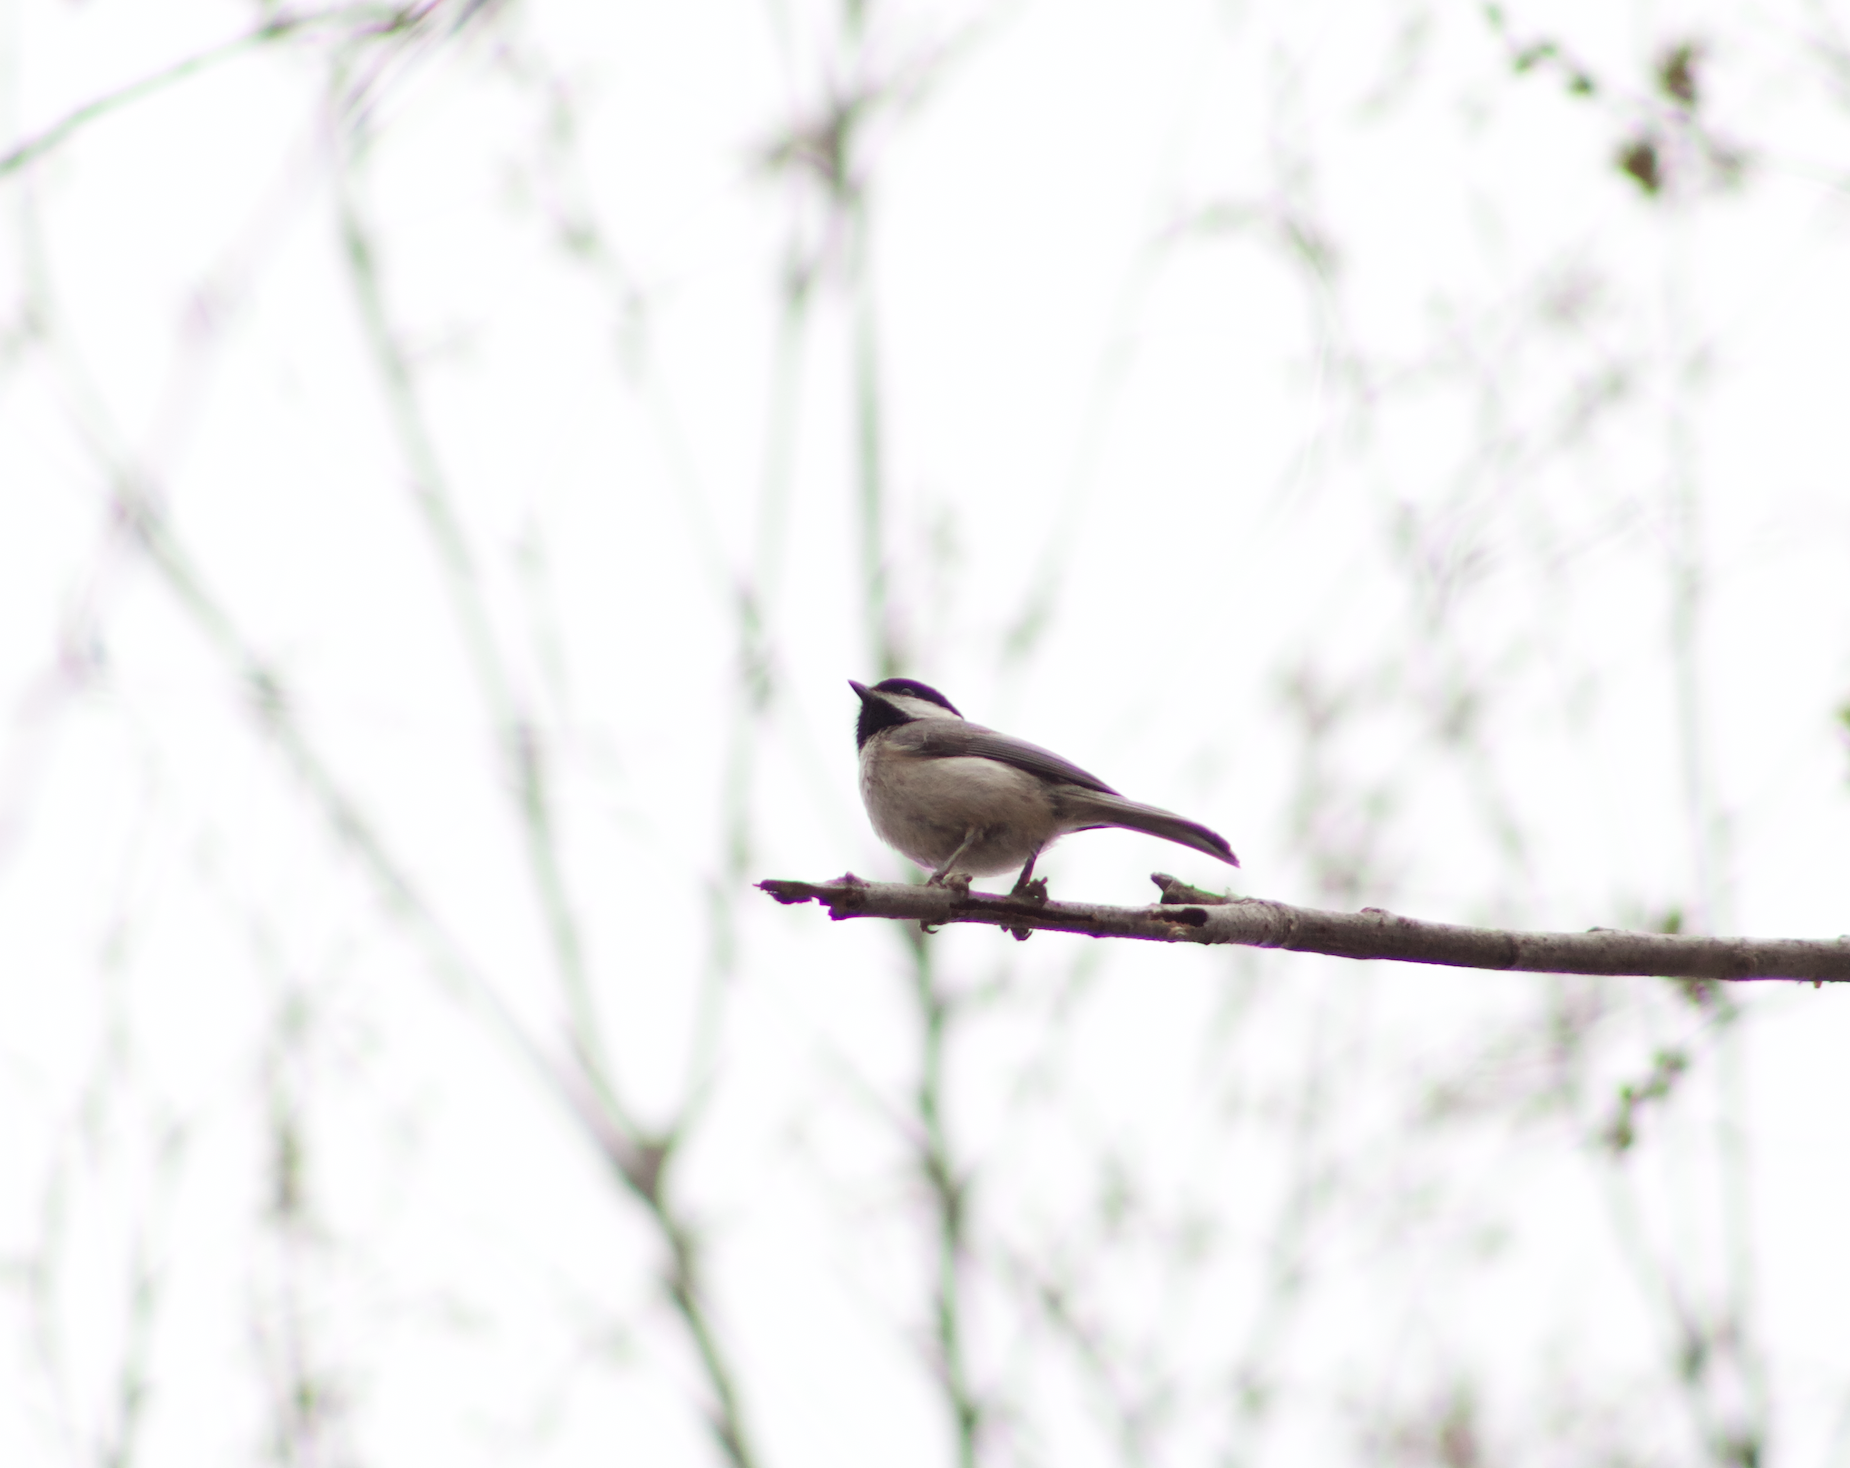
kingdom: Animalia
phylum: Chordata
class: Aves
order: Passeriformes
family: Paridae
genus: Poecile
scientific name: Poecile carolinensis
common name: Carolina chickadee
